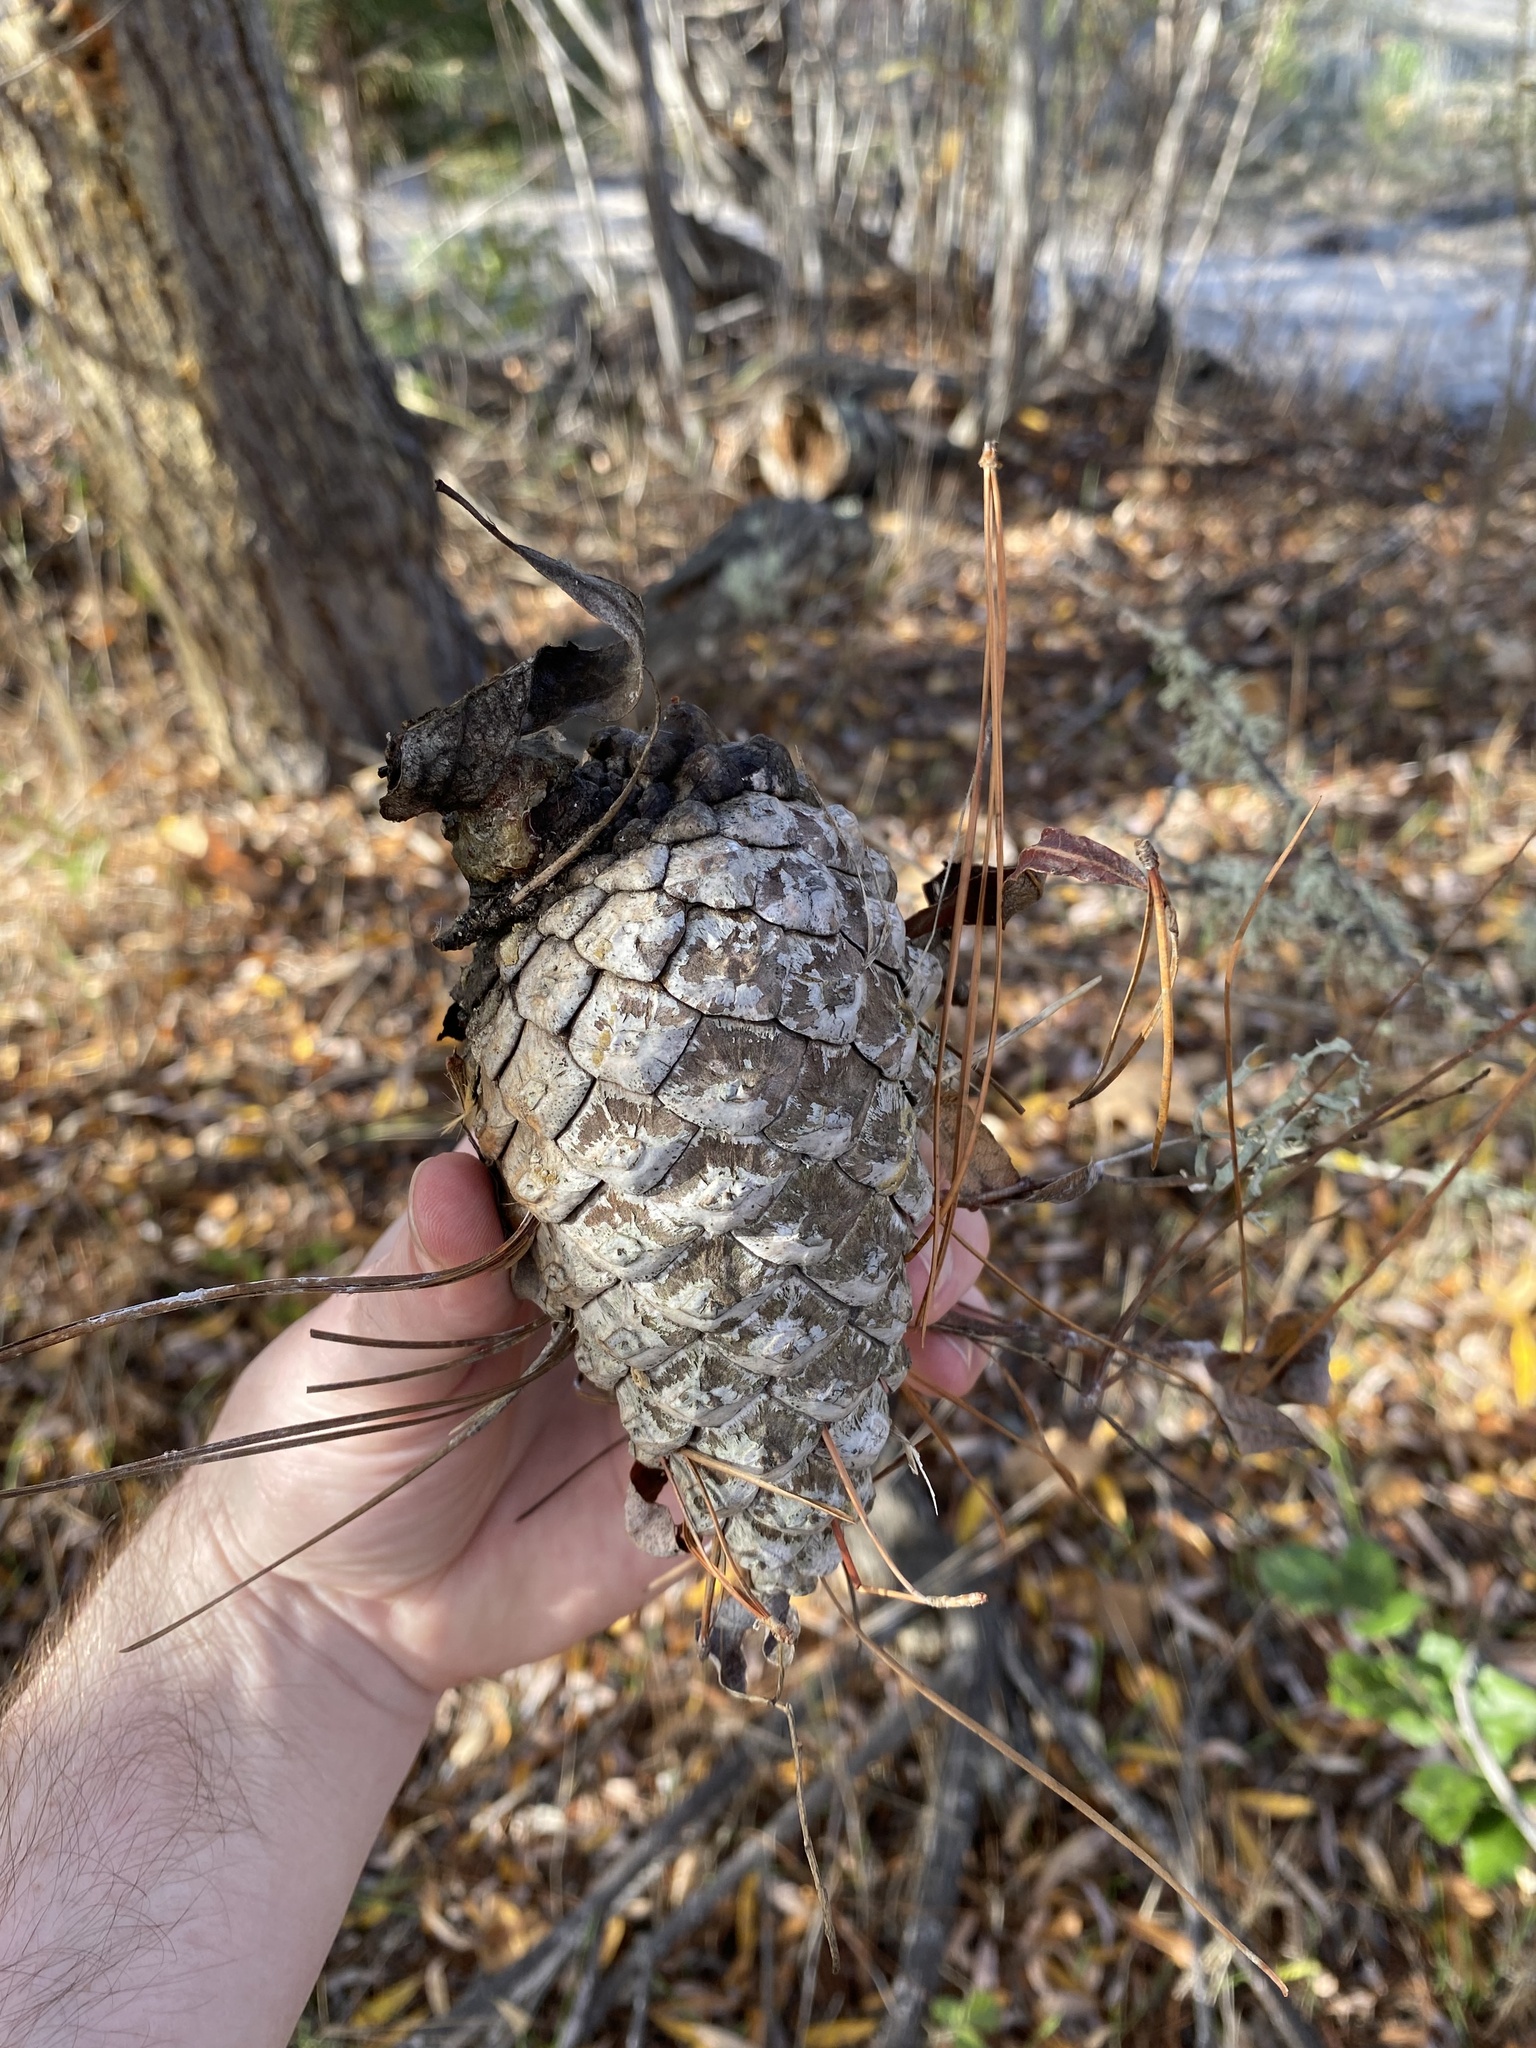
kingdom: Plantae
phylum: Tracheophyta
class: Pinopsida
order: Pinales
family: Pinaceae
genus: Pinus
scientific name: Pinus radiata
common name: Monterey pine
